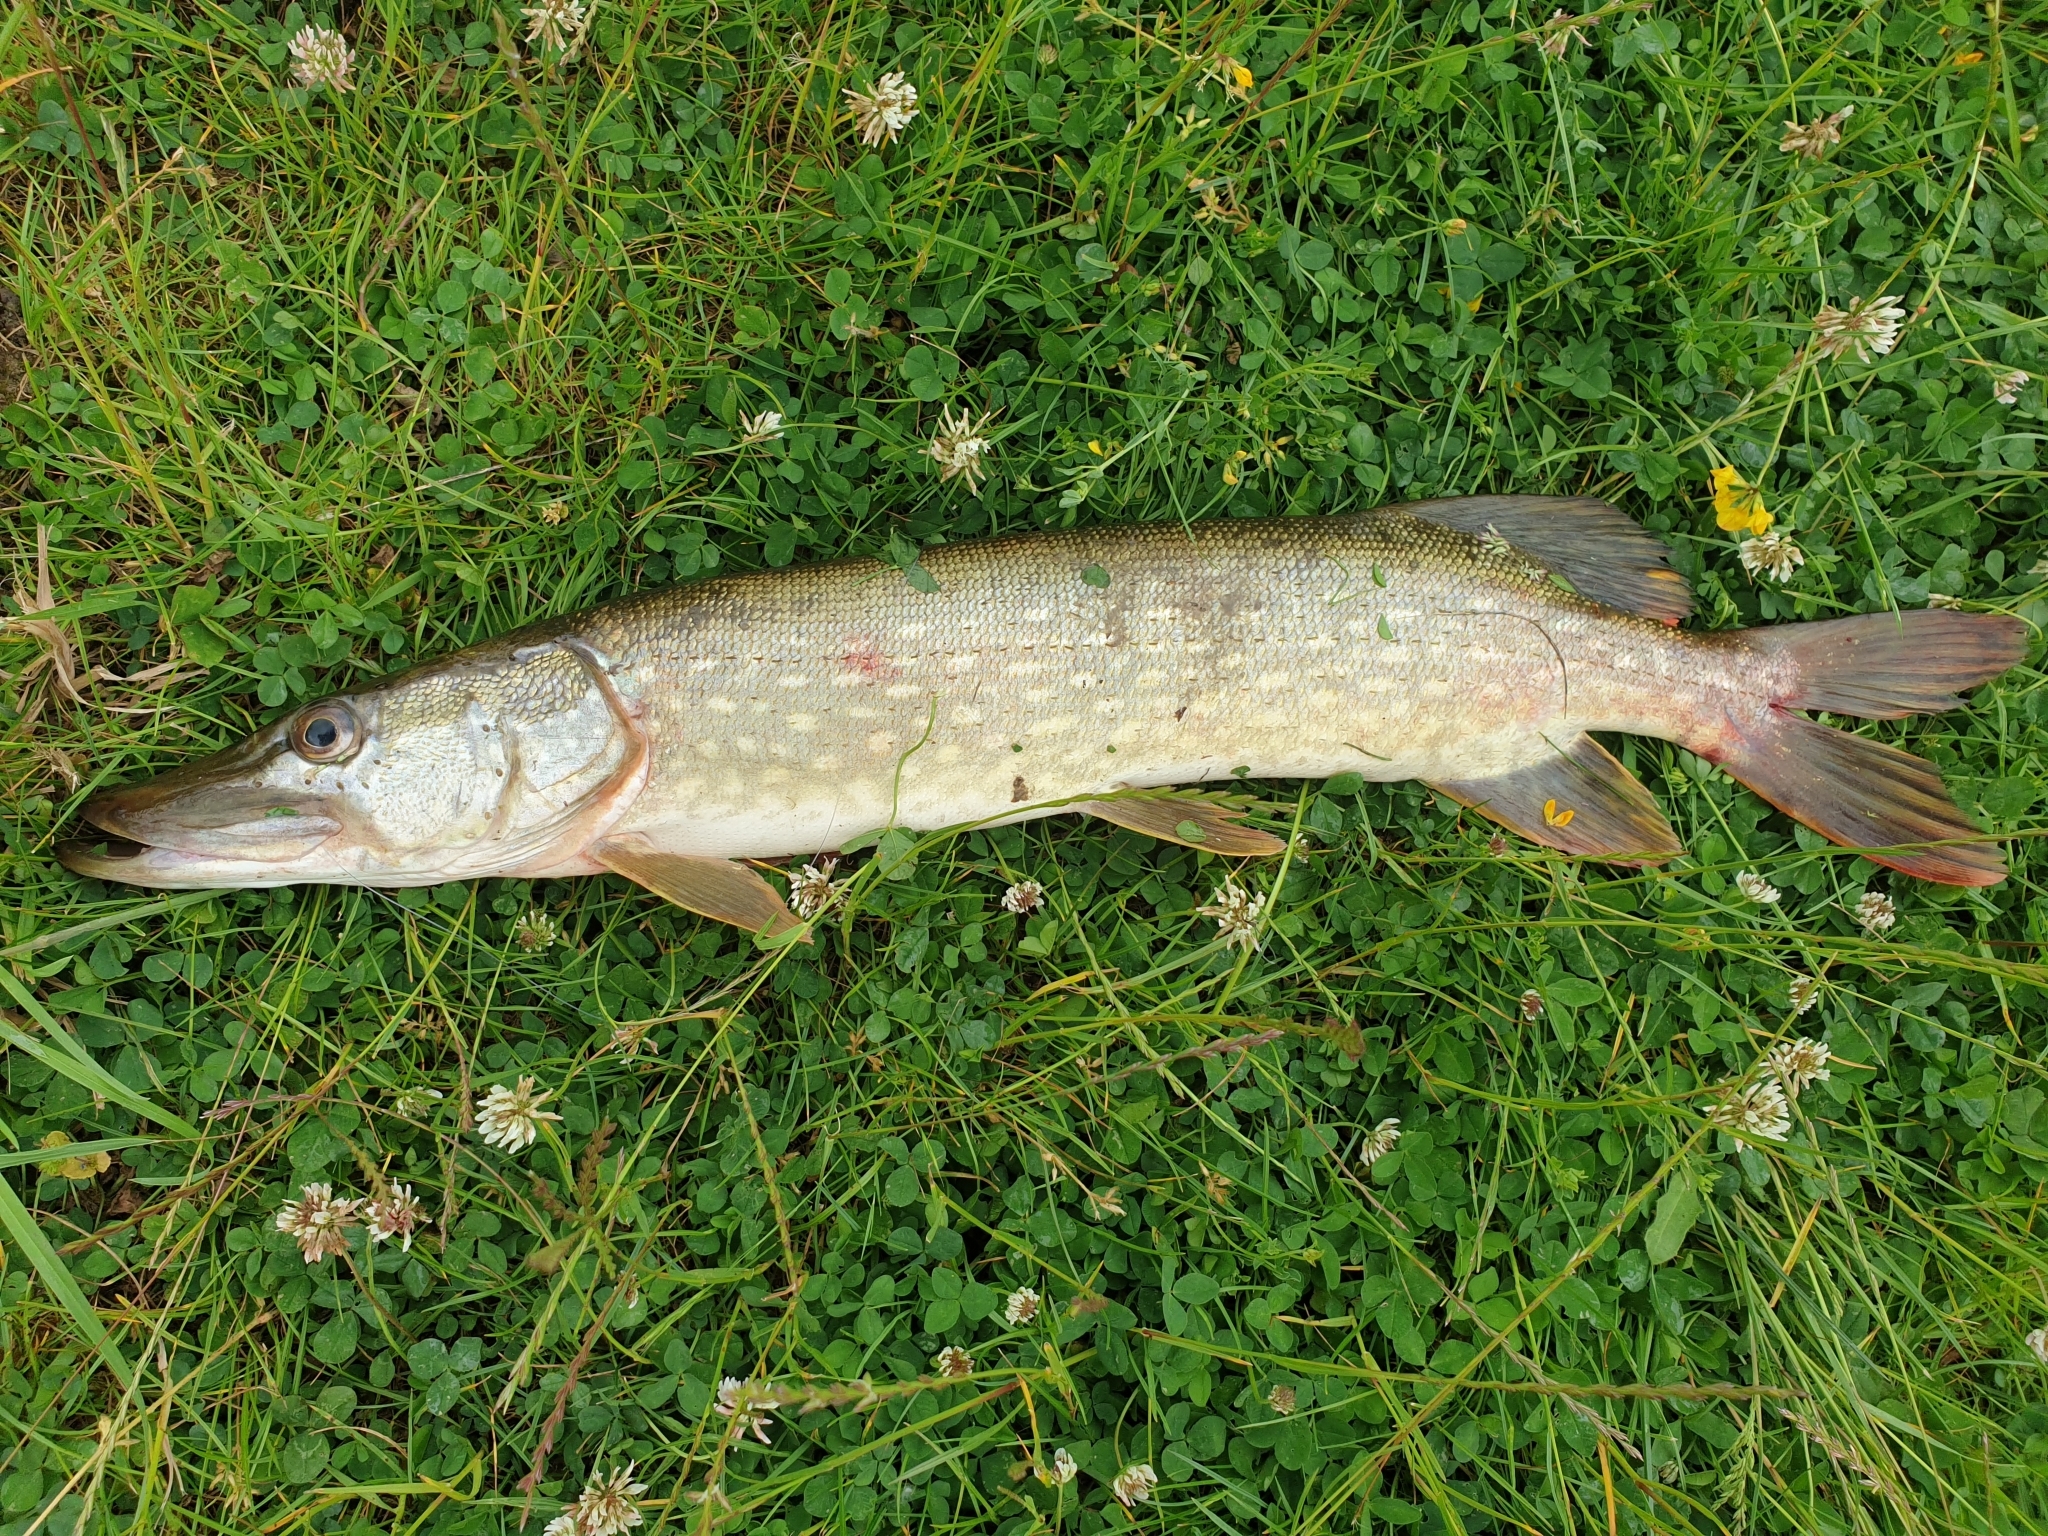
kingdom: Animalia
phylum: Chordata
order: Esociformes
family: Esocidae
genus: Esox
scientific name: Esox lucius
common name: Northern pike
